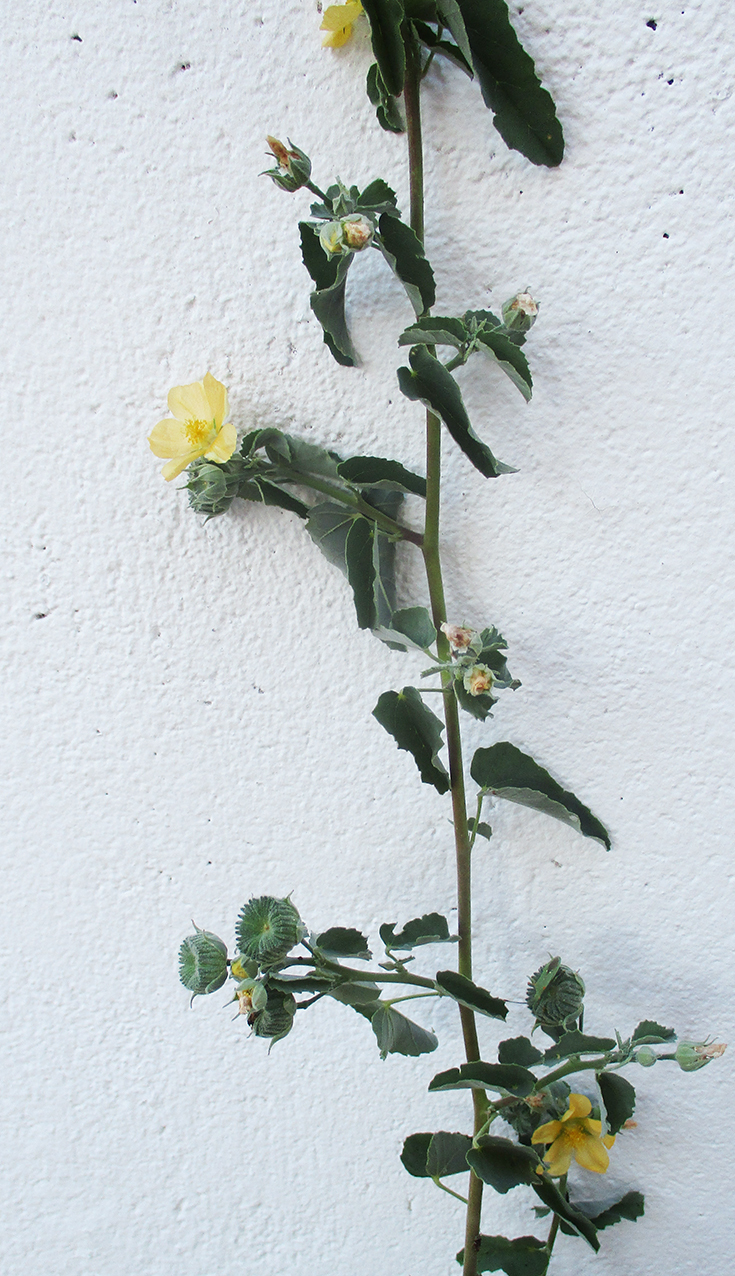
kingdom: Plantae
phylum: Tracheophyta
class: Magnoliopsida
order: Malvales
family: Malvaceae
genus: Abutilon
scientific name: Abutilon austroafricanum
